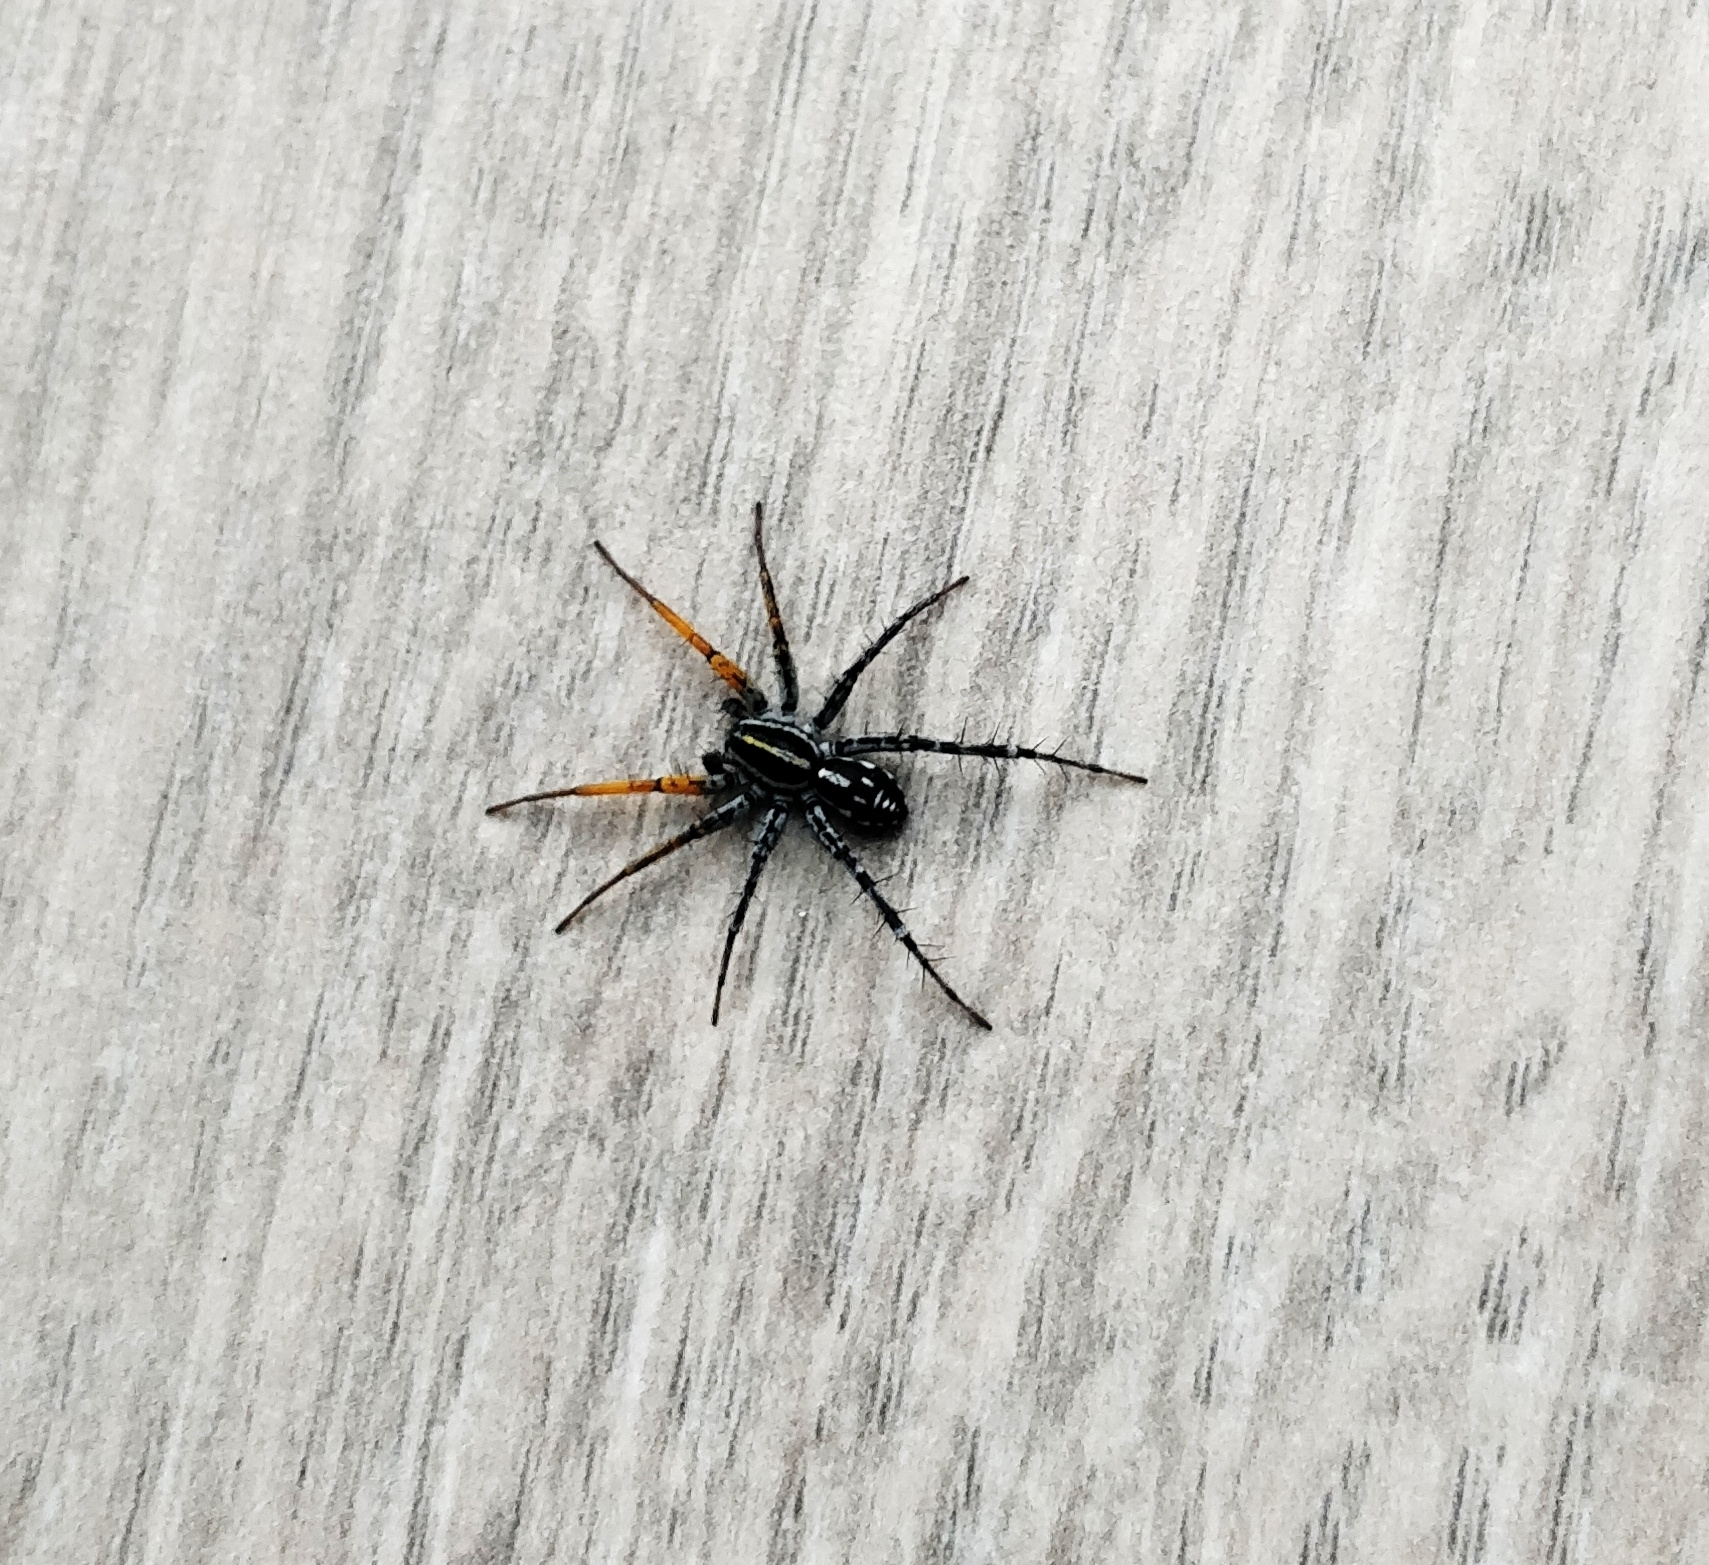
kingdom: Animalia
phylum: Arthropoda
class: Arachnida
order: Araneae
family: Corinnidae
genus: Nyssus
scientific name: Nyssus coloripes
